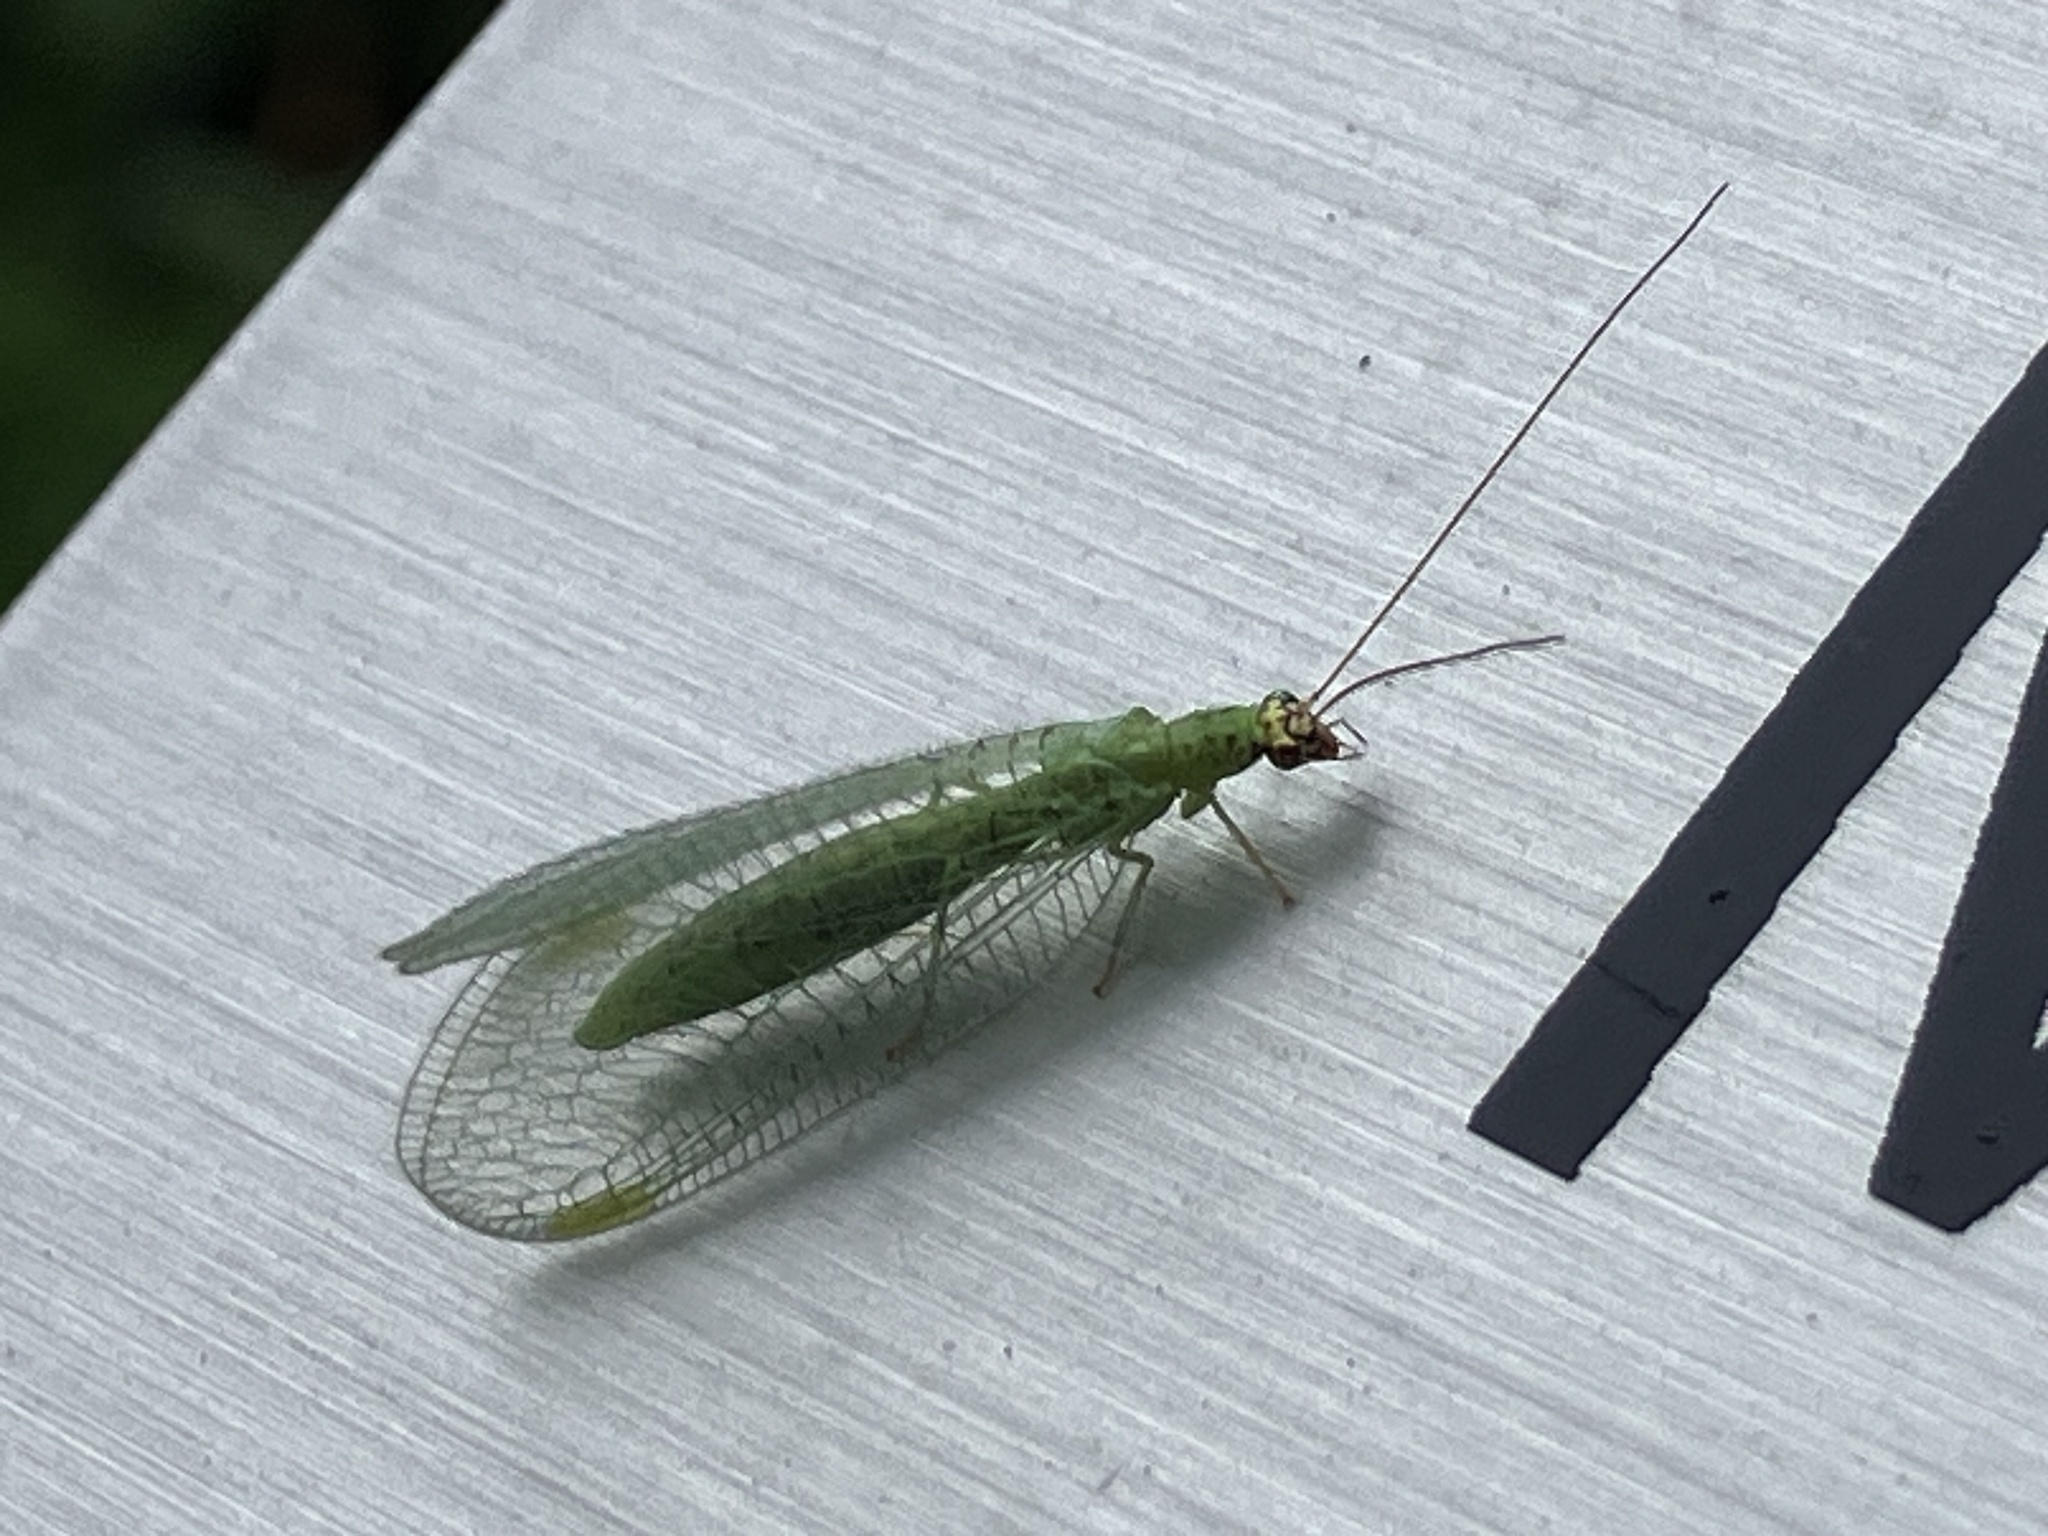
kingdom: Animalia
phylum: Arthropoda
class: Insecta
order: Neuroptera
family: Chrysopidae
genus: Chrysopa
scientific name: Chrysopa oculata
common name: Golden-eyed lacewing
